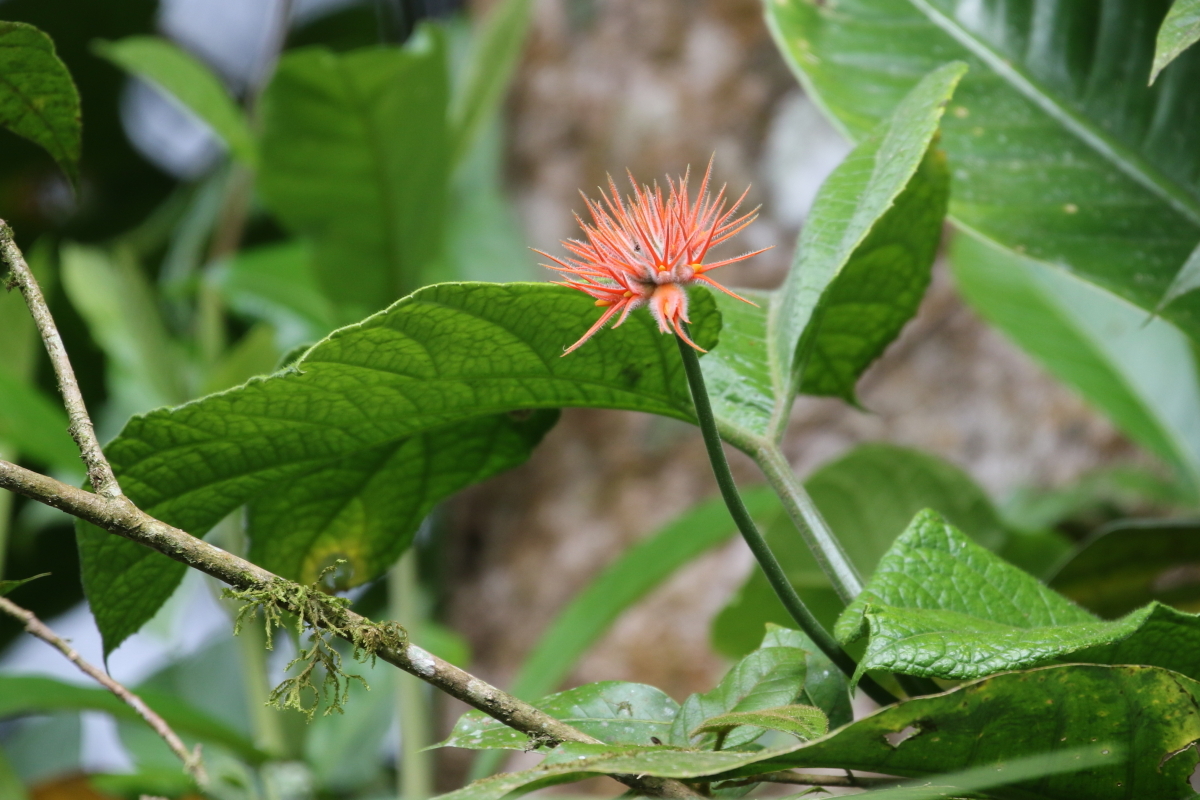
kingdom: Plantae
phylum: Tracheophyta
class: Magnoliopsida
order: Cucurbitales
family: Cucurbitaceae
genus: Gurania
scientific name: Gurania makoyana
